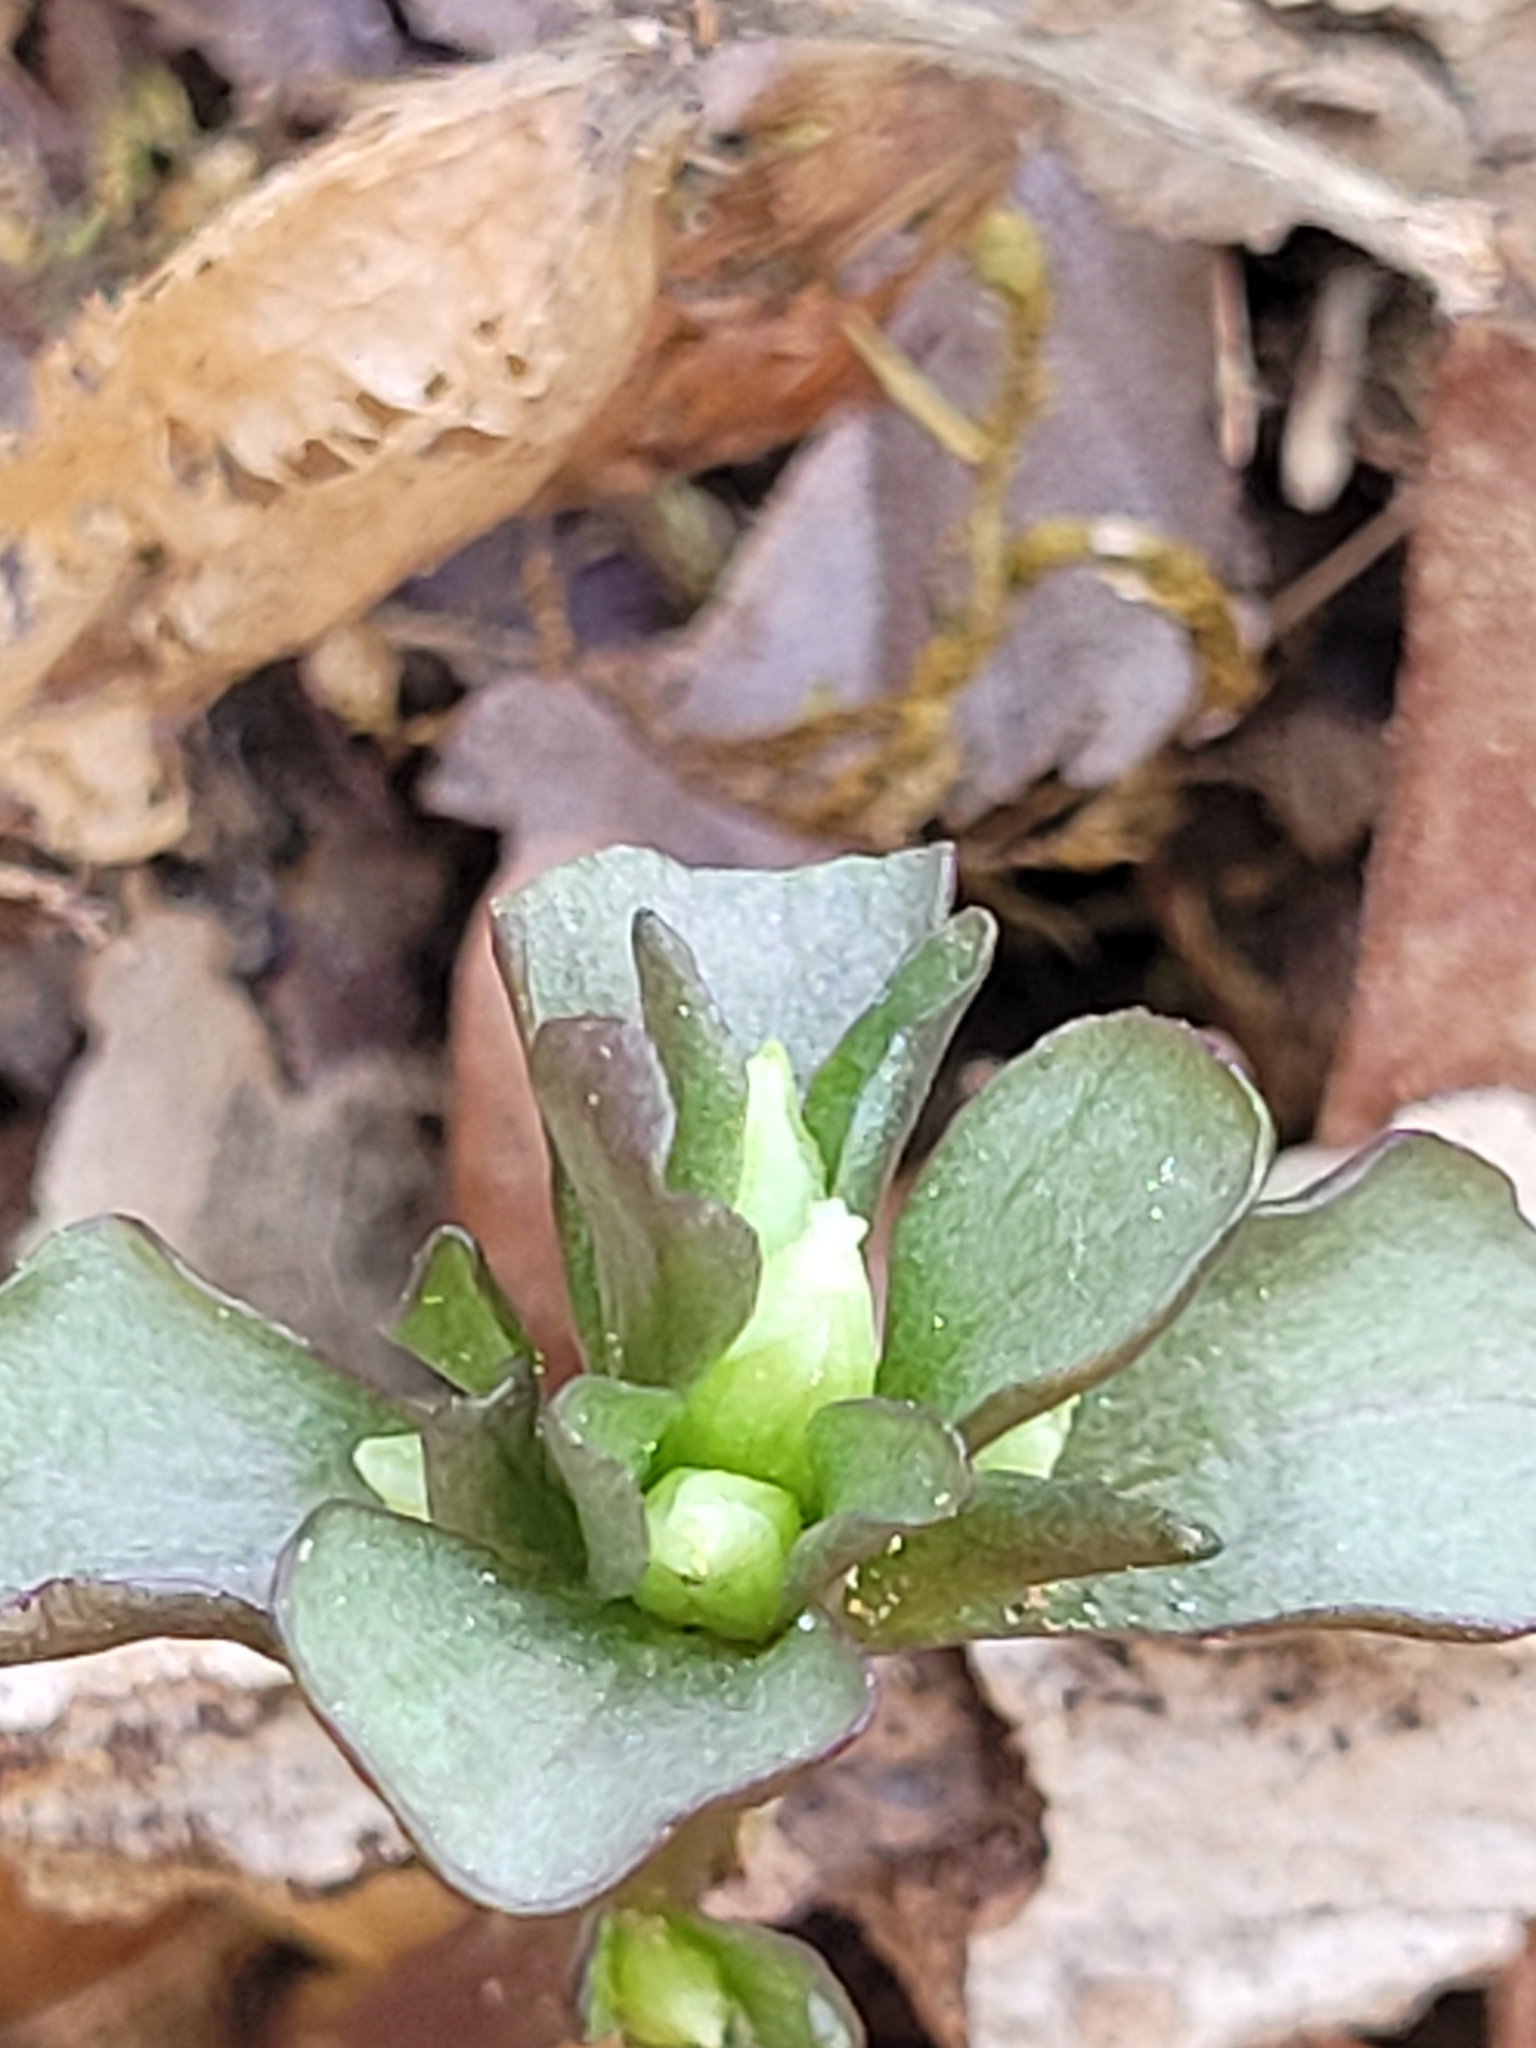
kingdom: Plantae
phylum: Tracheophyta
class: Magnoliopsida
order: Gentianales
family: Gentianaceae
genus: Obolaria
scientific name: Obolaria virginica
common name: Pennywort
